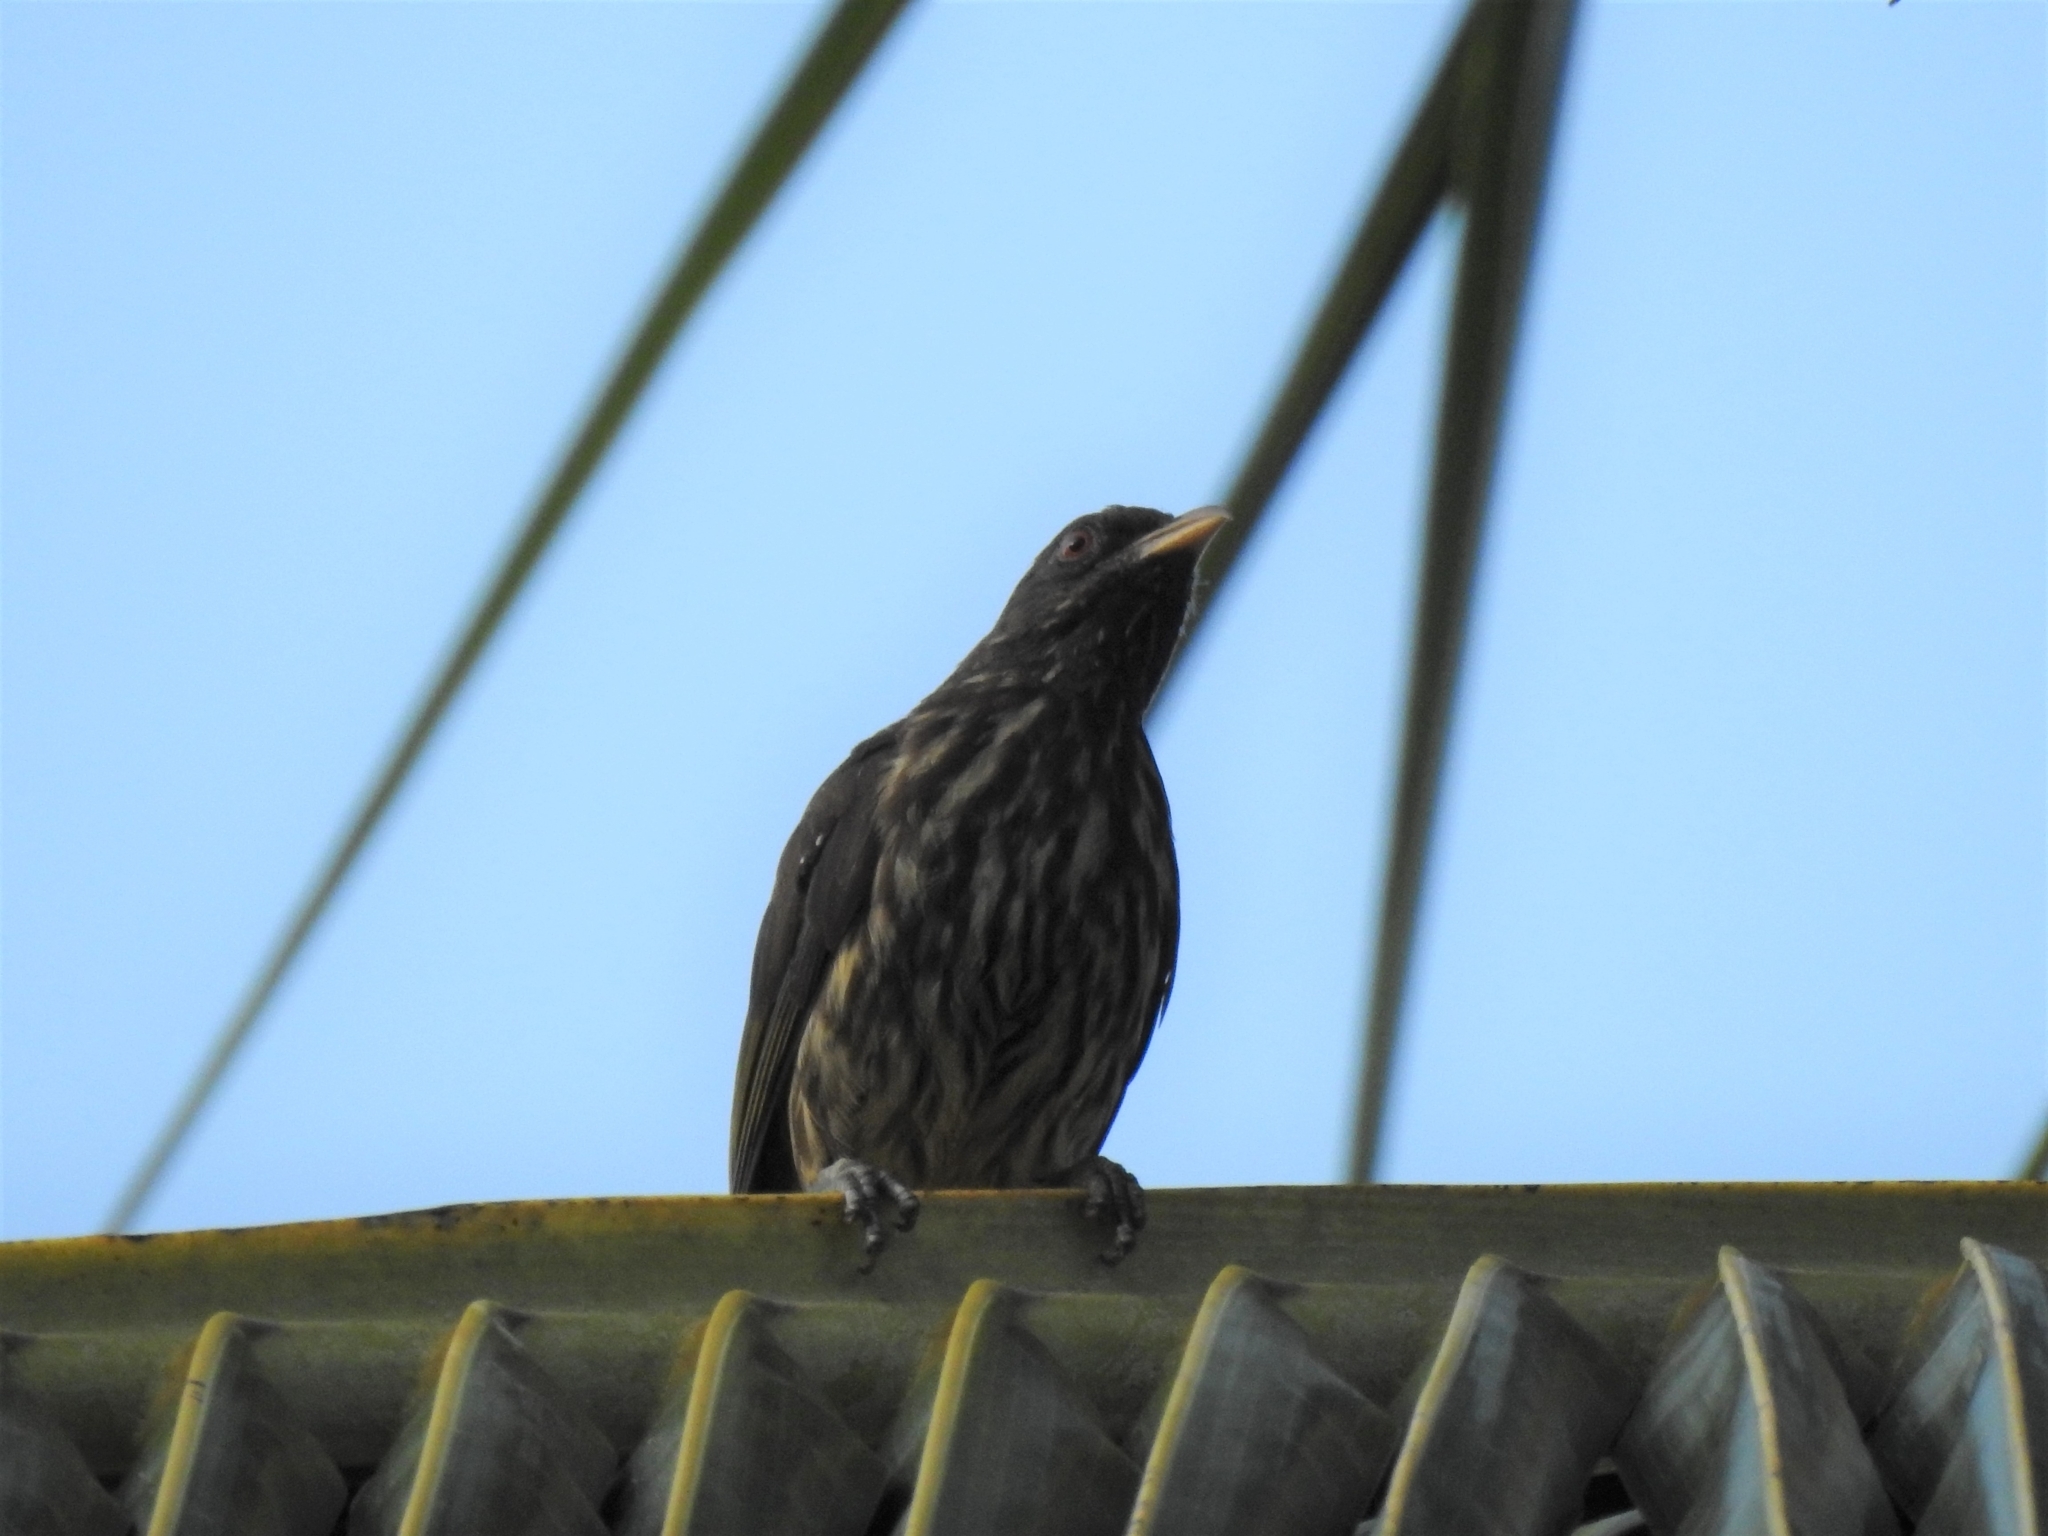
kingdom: Animalia
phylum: Chordata
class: Aves
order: Passeriformes
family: Dulidae
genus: Dulus
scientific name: Dulus dominicus
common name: Palmchat
